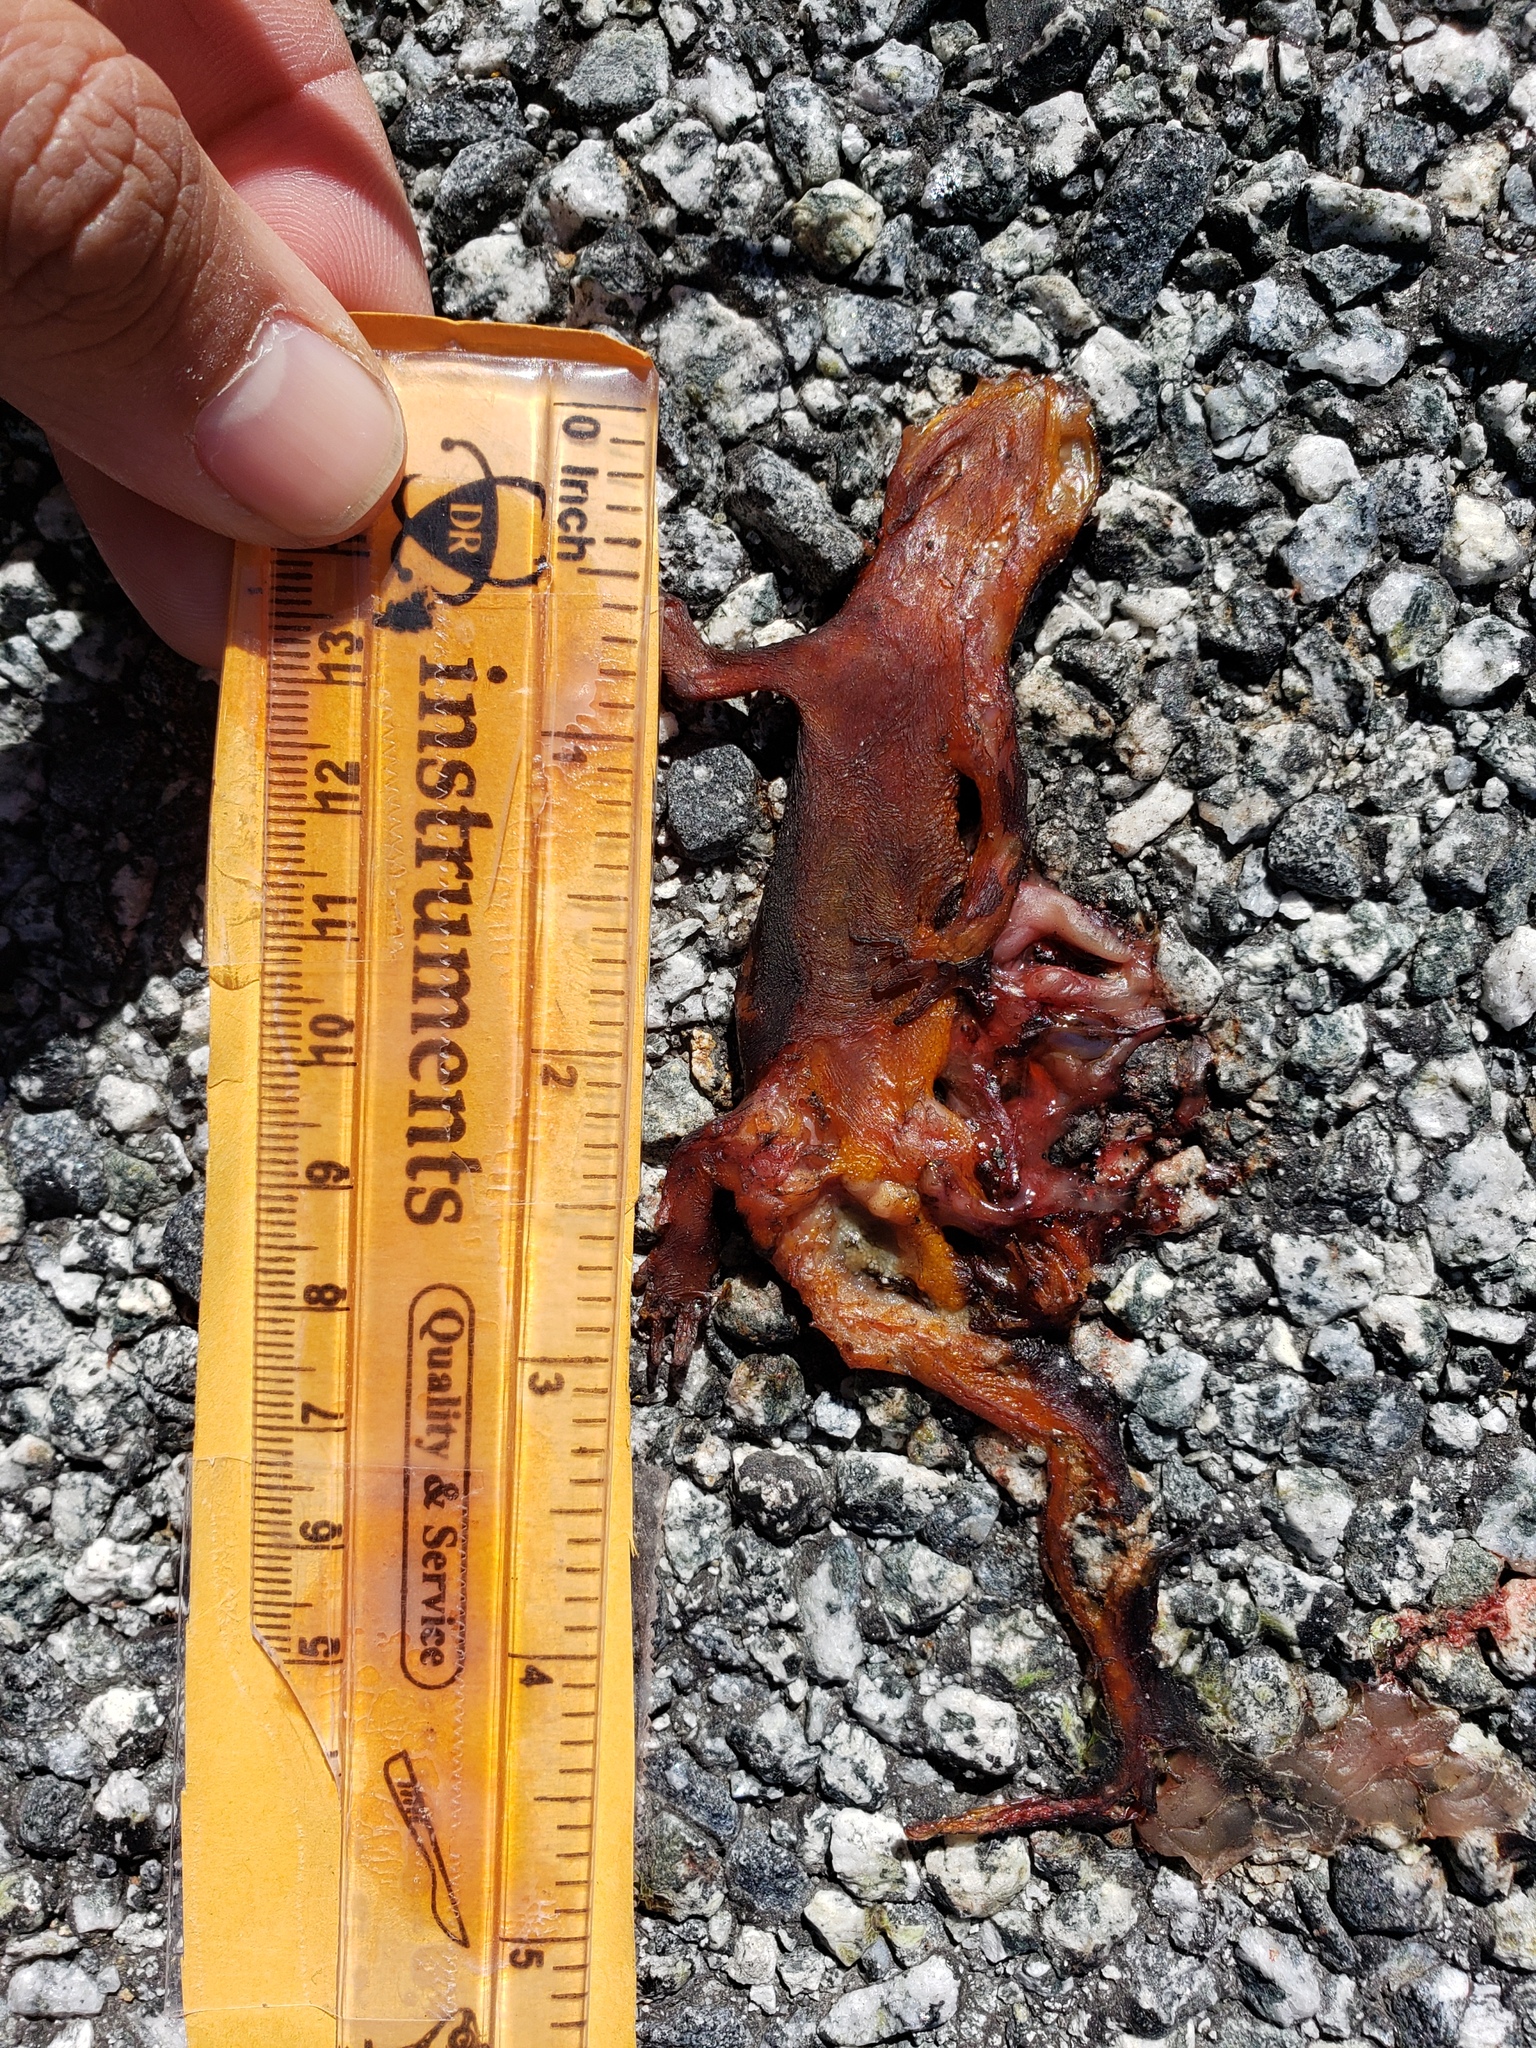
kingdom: Animalia
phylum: Chordata
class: Amphibia
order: Caudata
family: Salamandridae
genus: Taricha
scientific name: Taricha
